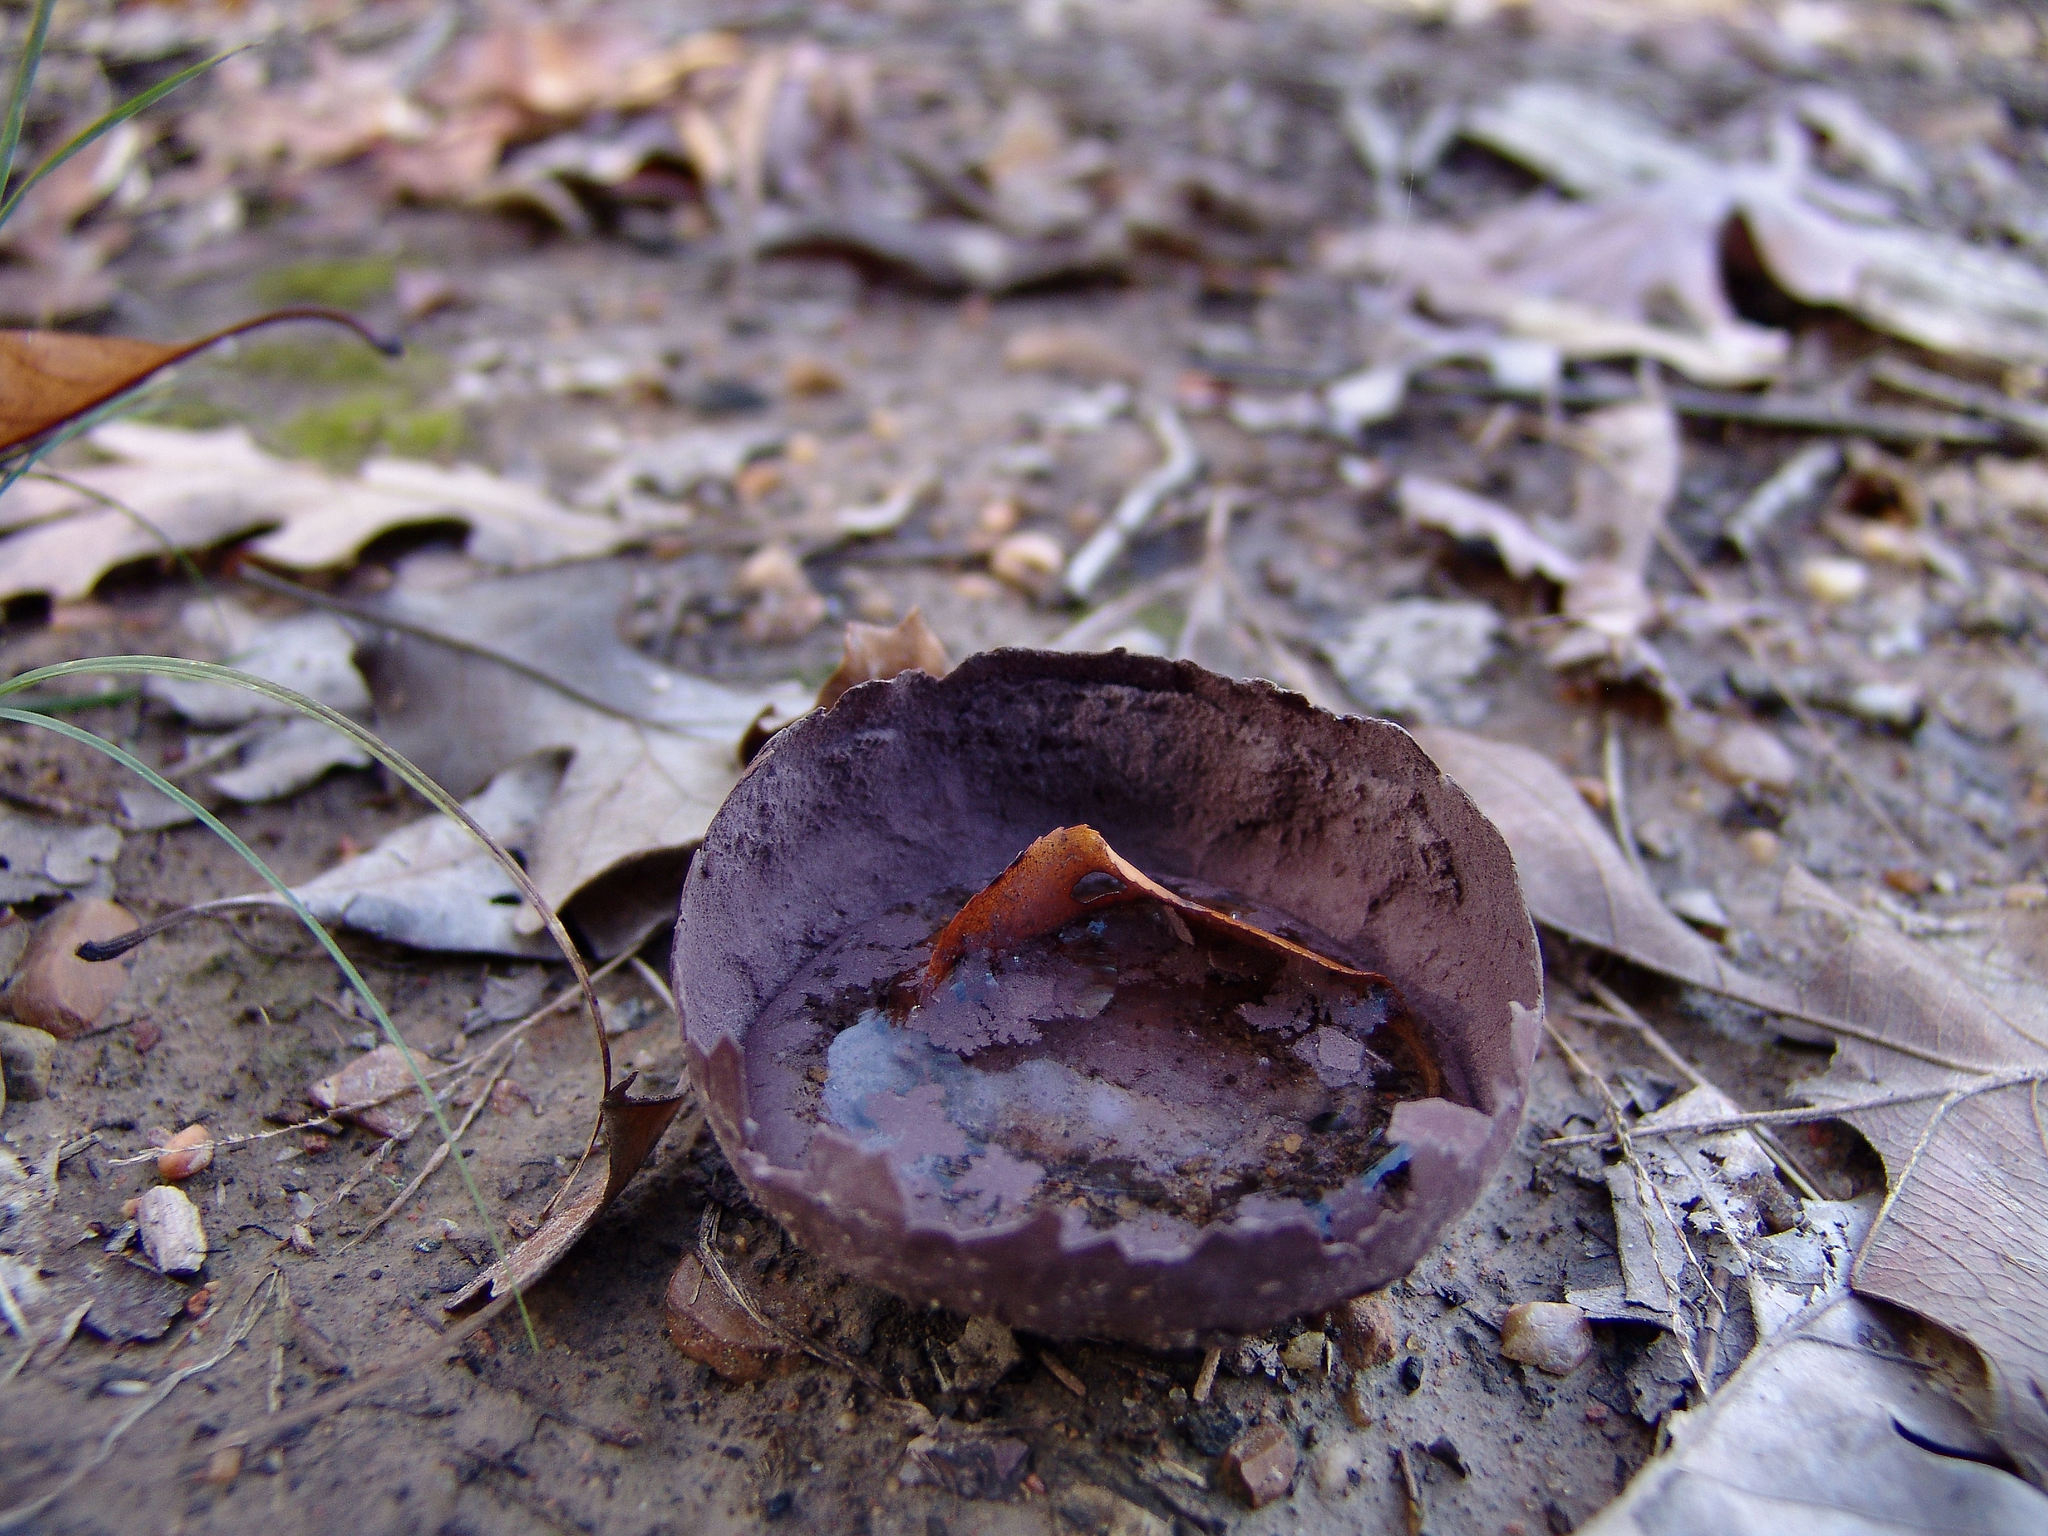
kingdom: Fungi
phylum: Basidiomycota
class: Agaricomycetes
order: Agaricales
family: Lycoperdaceae
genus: Calvatia
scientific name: Calvatia cyathiformis
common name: Purple-spored puffball
